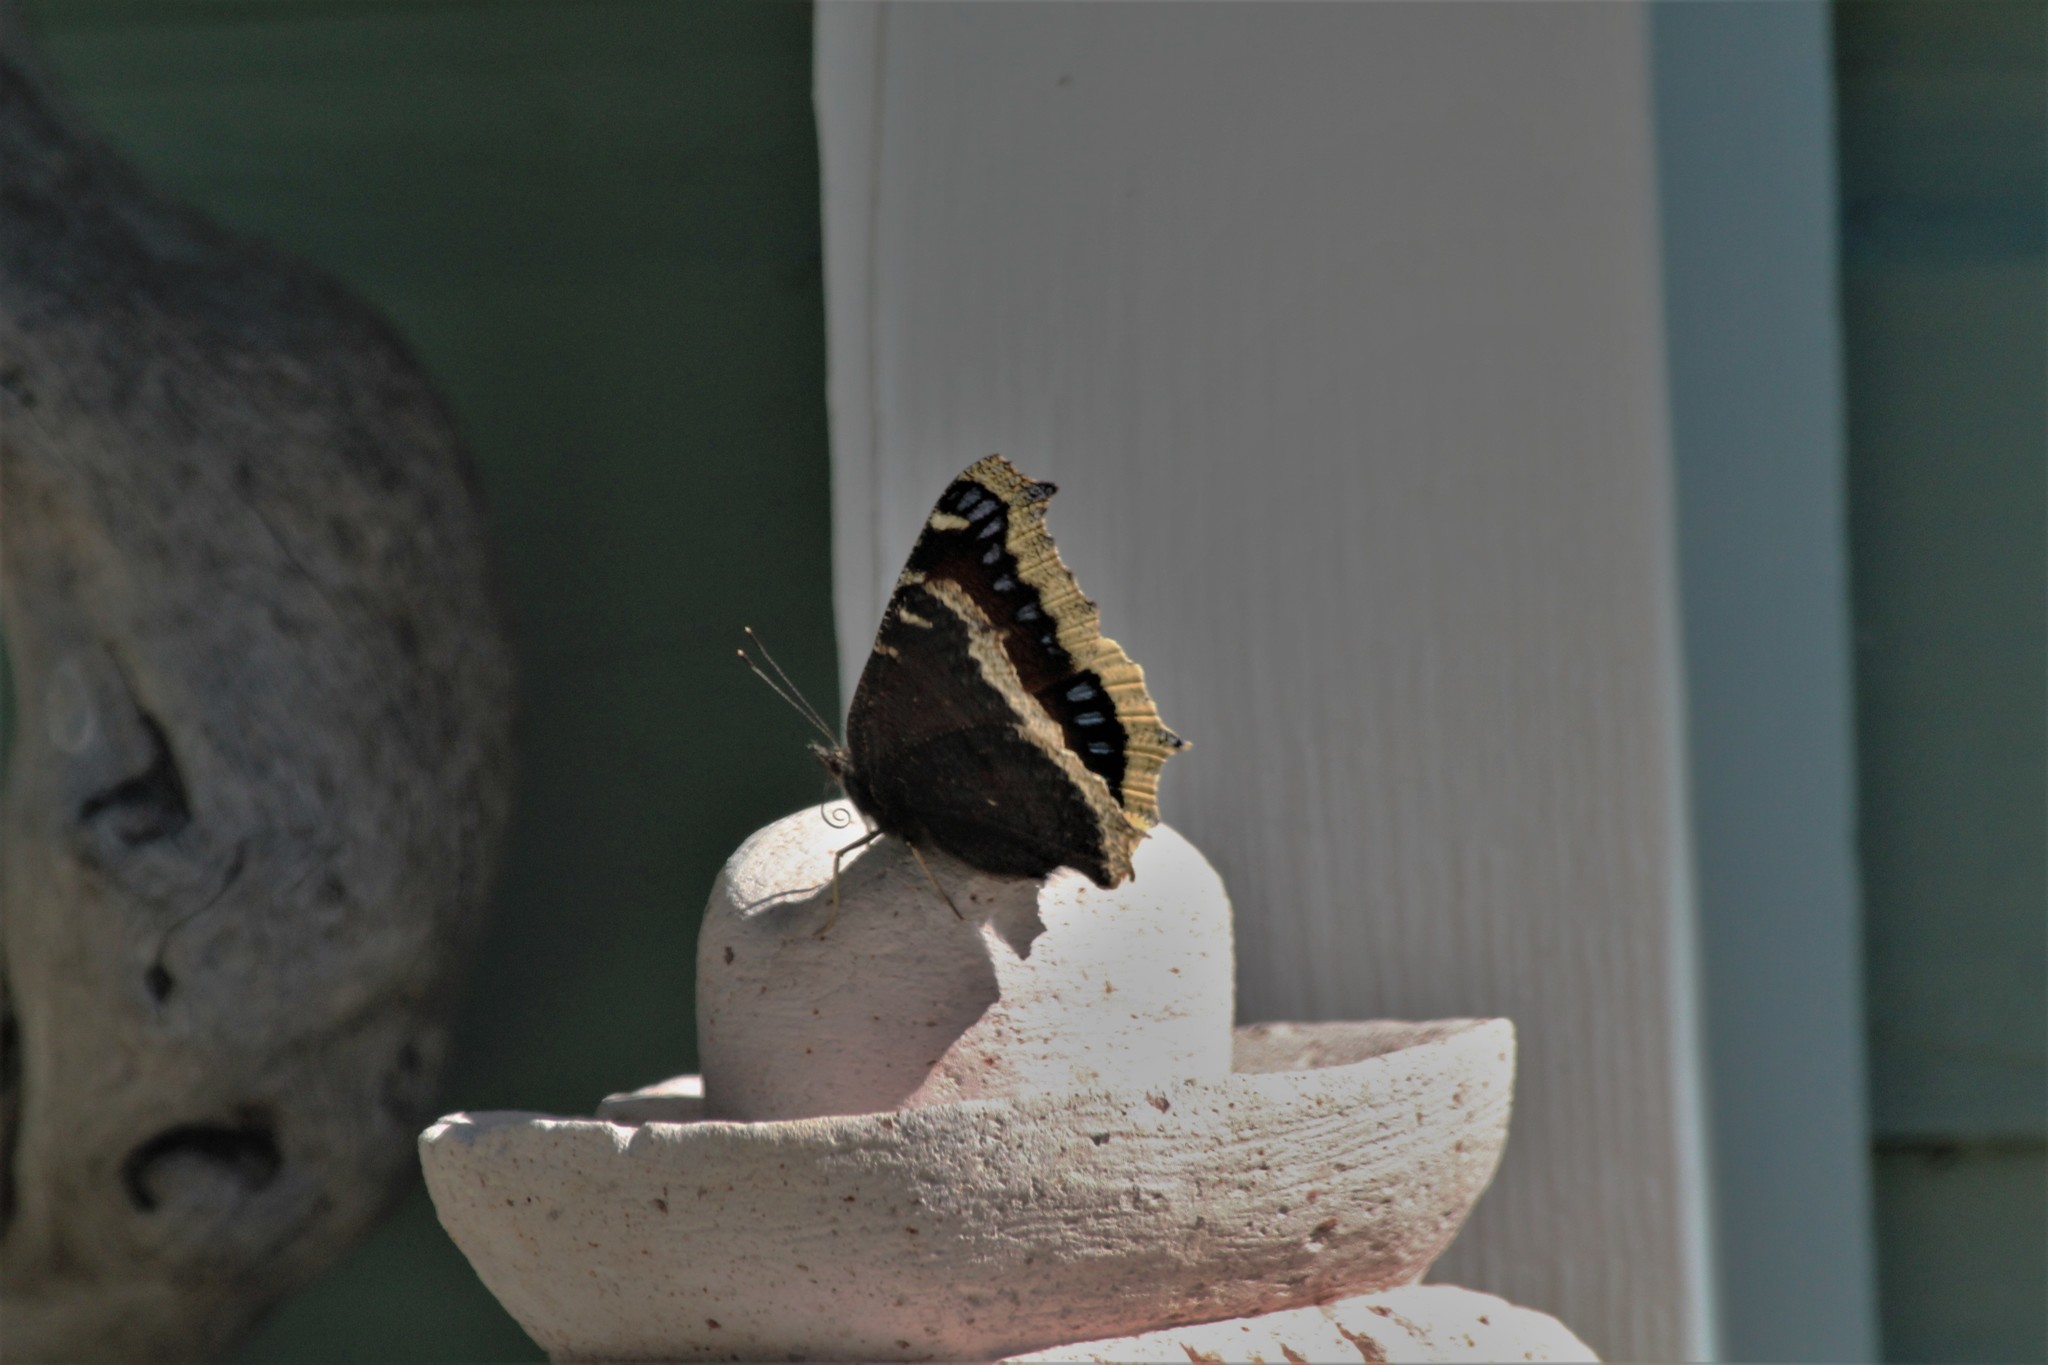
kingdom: Animalia
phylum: Arthropoda
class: Insecta
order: Lepidoptera
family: Nymphalidae
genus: Nymphalis
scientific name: Nymphalis antiopa
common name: Camberwell beauty
